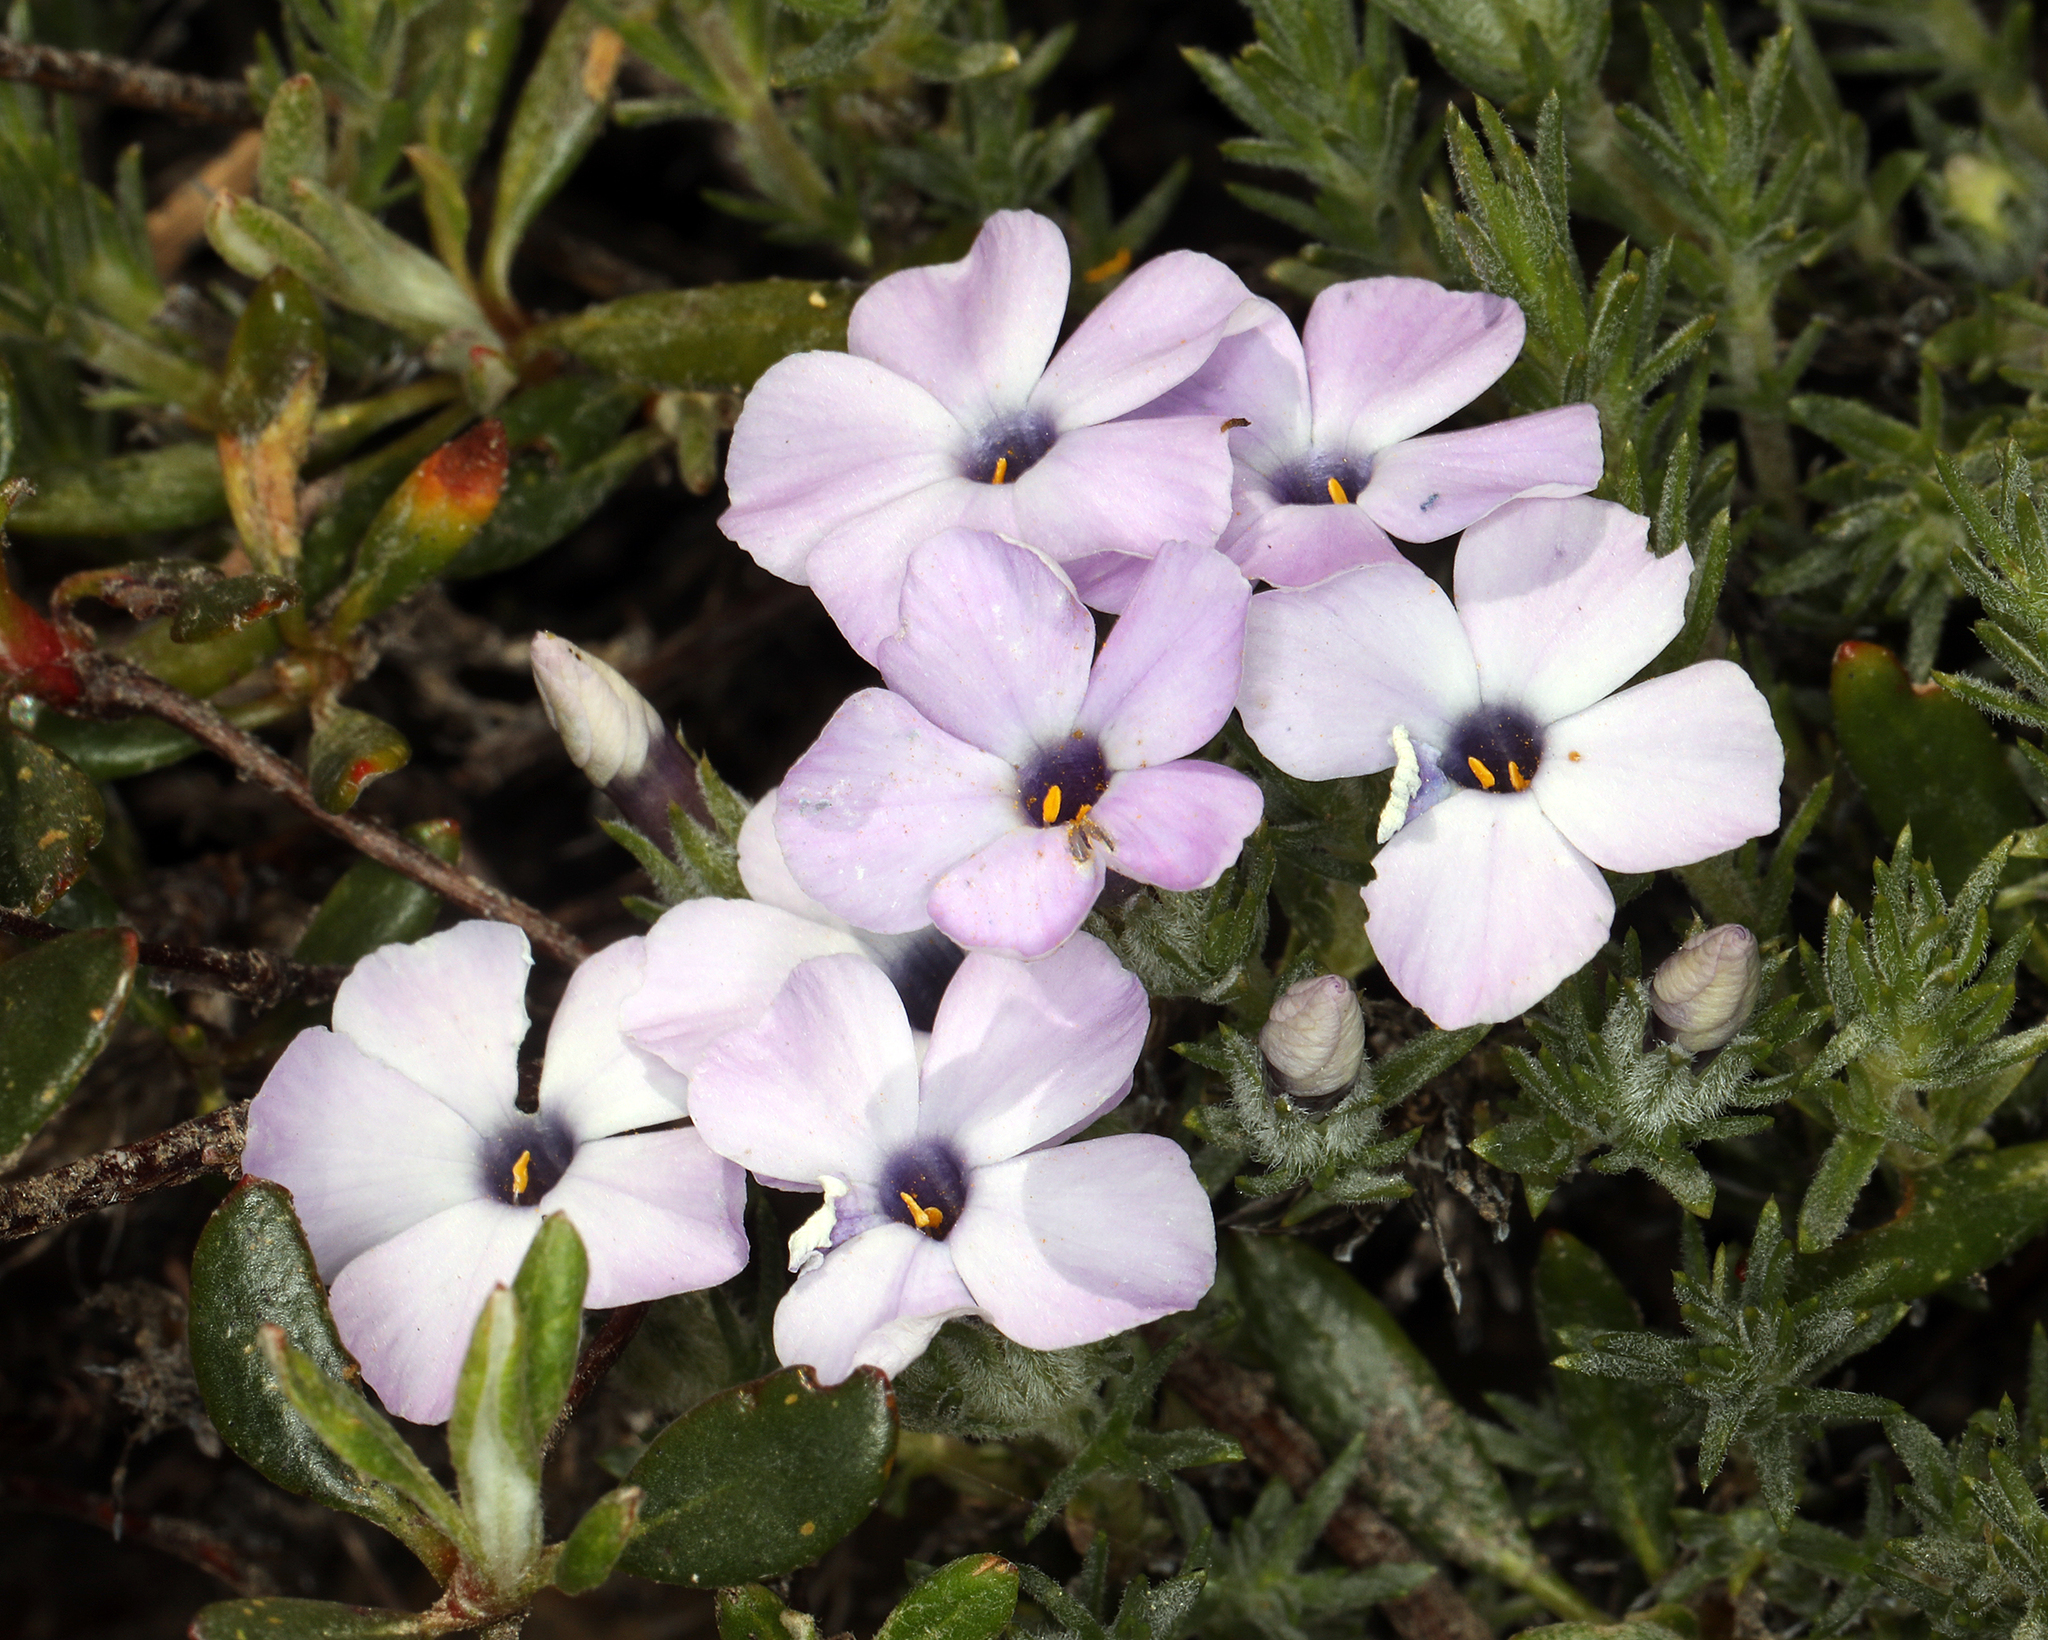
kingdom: Plantae
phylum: Tracheophyta
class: Magnoliopsida
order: Ericales
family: Polemoniaceae
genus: Phlox
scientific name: Phlox diffusa
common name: Mat phlox
